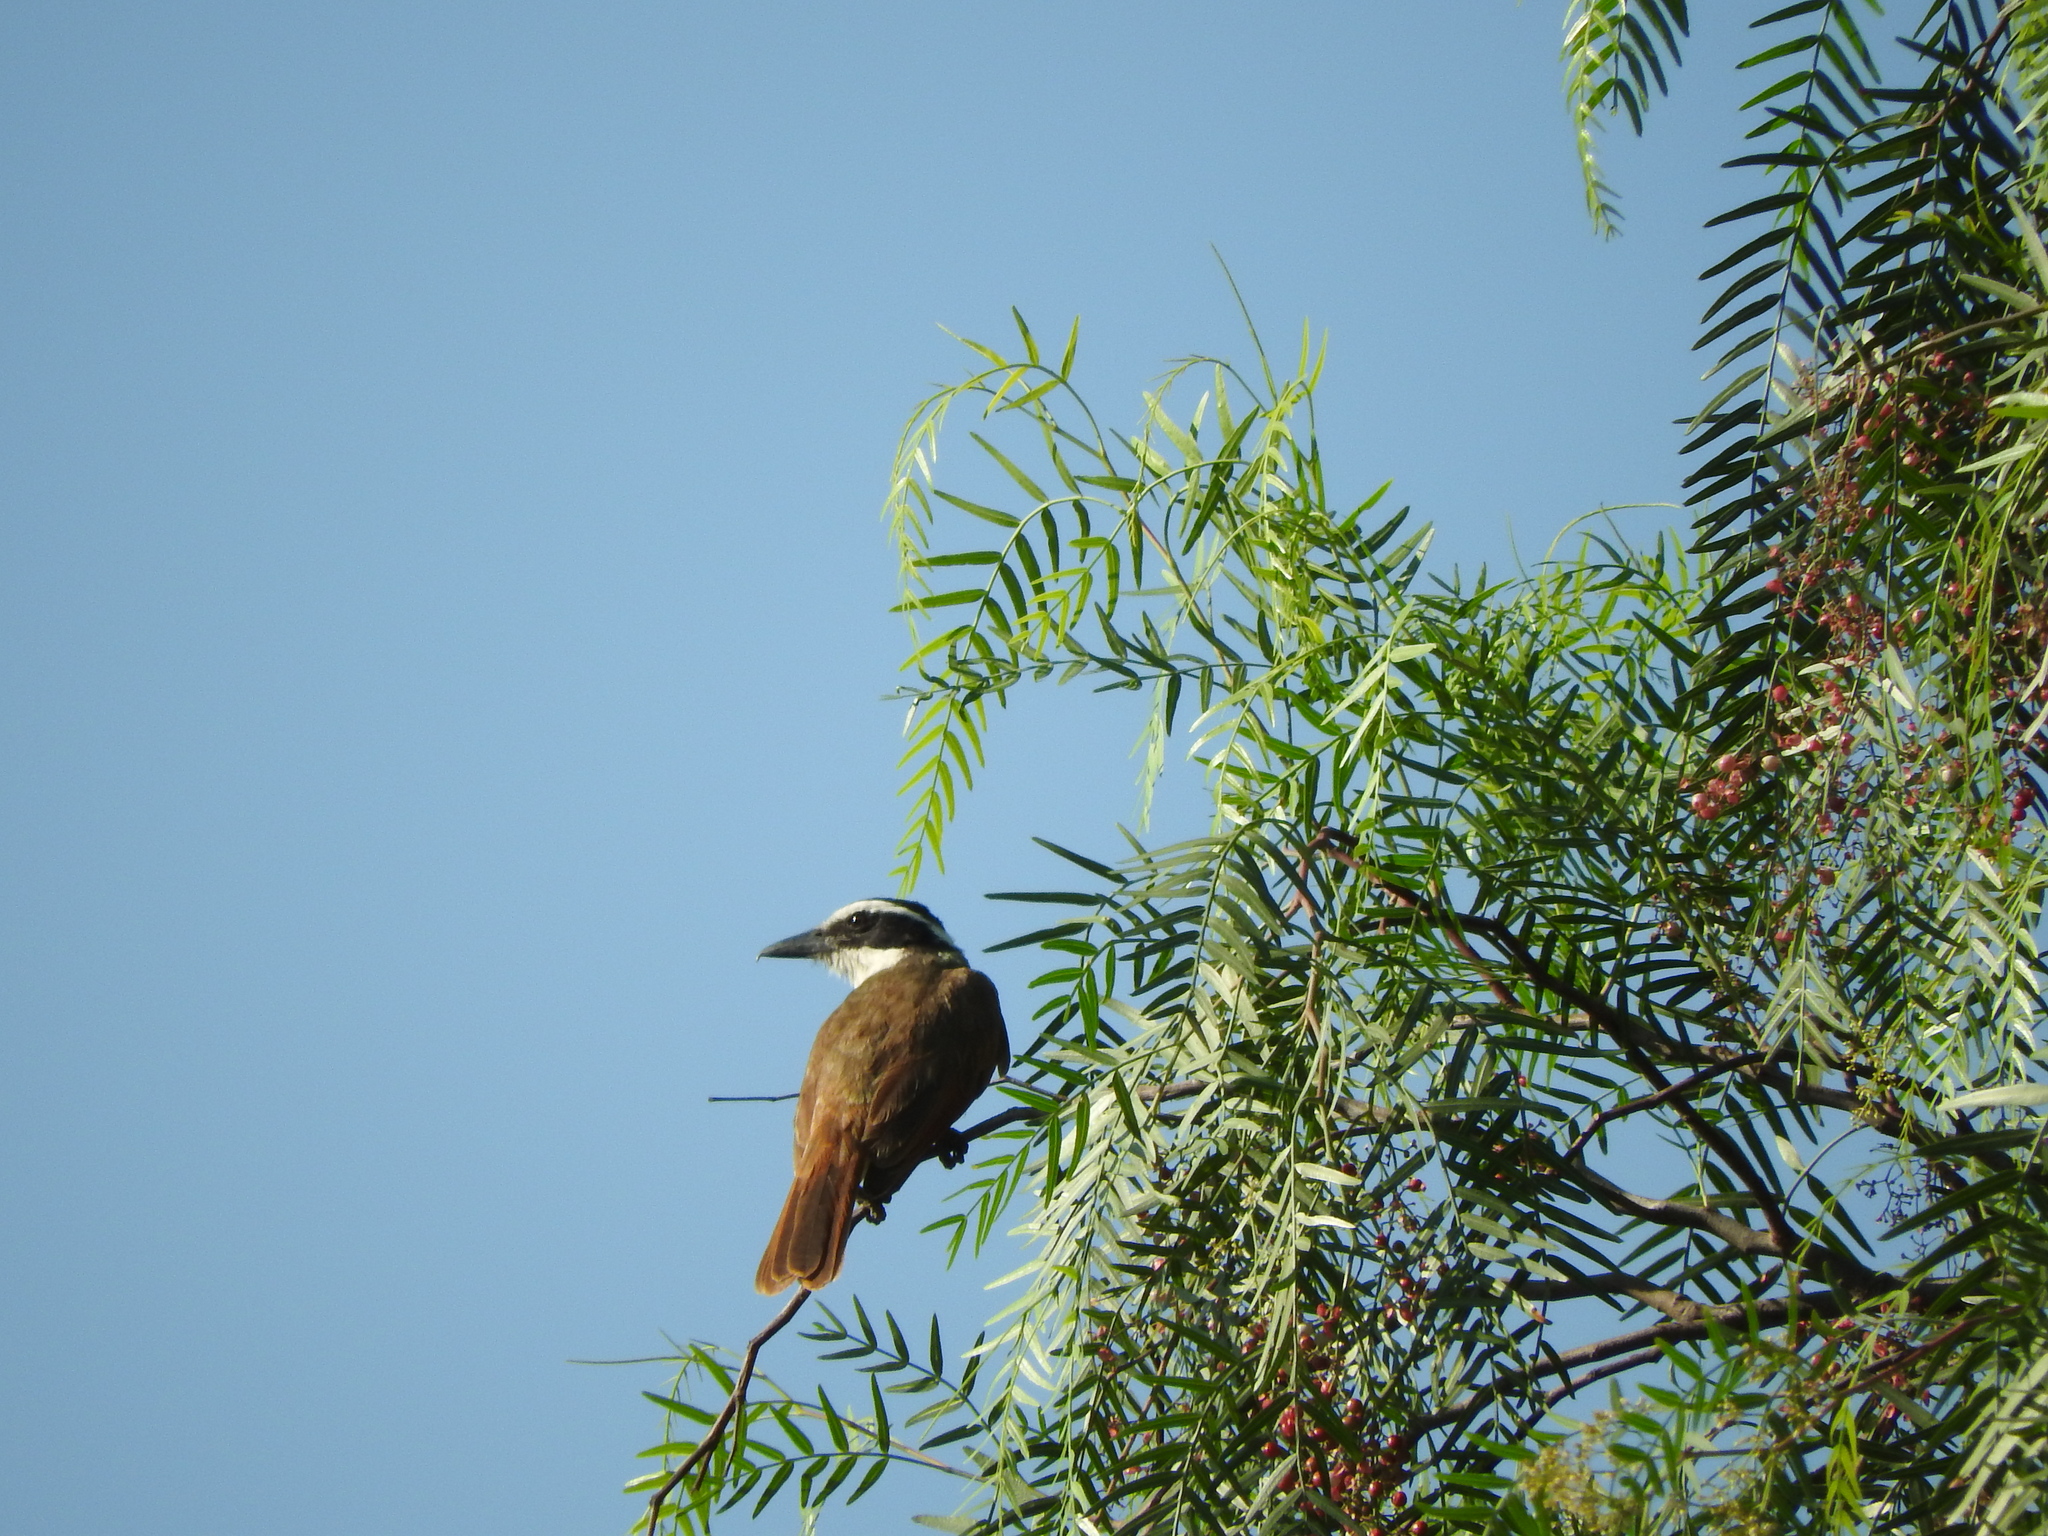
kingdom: Animalia
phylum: Chordata
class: Aves
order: Passeriformes
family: Tyrannidae
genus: Pitangus
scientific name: Pitangus sulphuratus
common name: Great kiskadee
